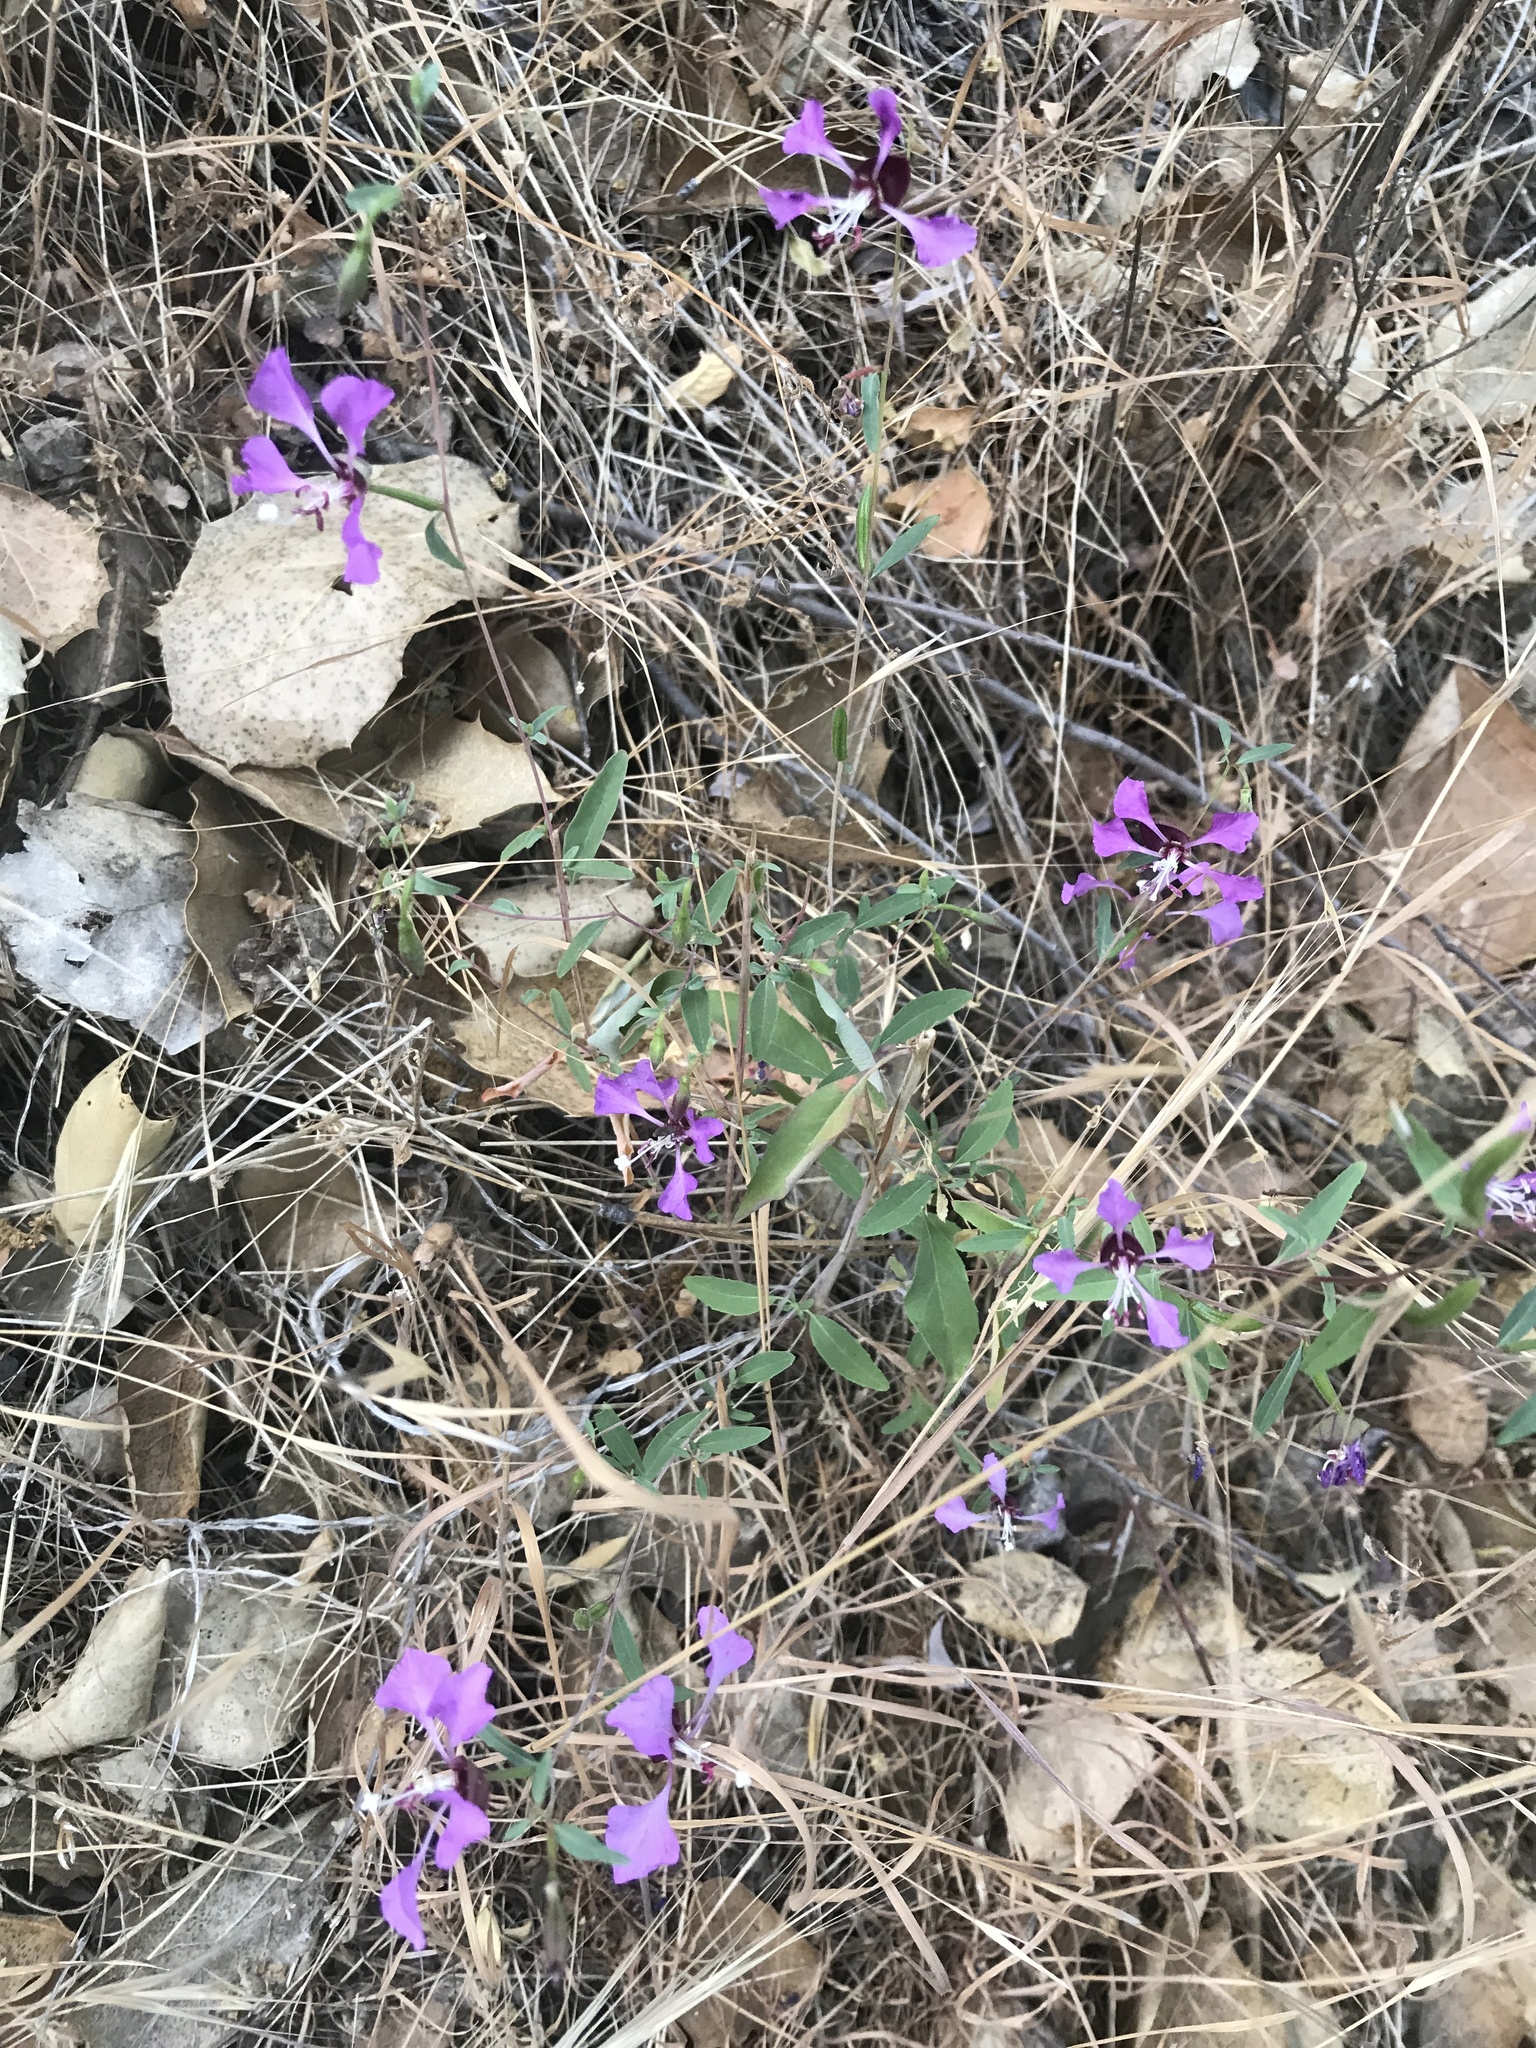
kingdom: Plantae
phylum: Tracheophyta
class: Magnoliopsida
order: Myrtales
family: Onagraceae
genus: Clarkia
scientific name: Clarkia unguiculata
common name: Clarkia
